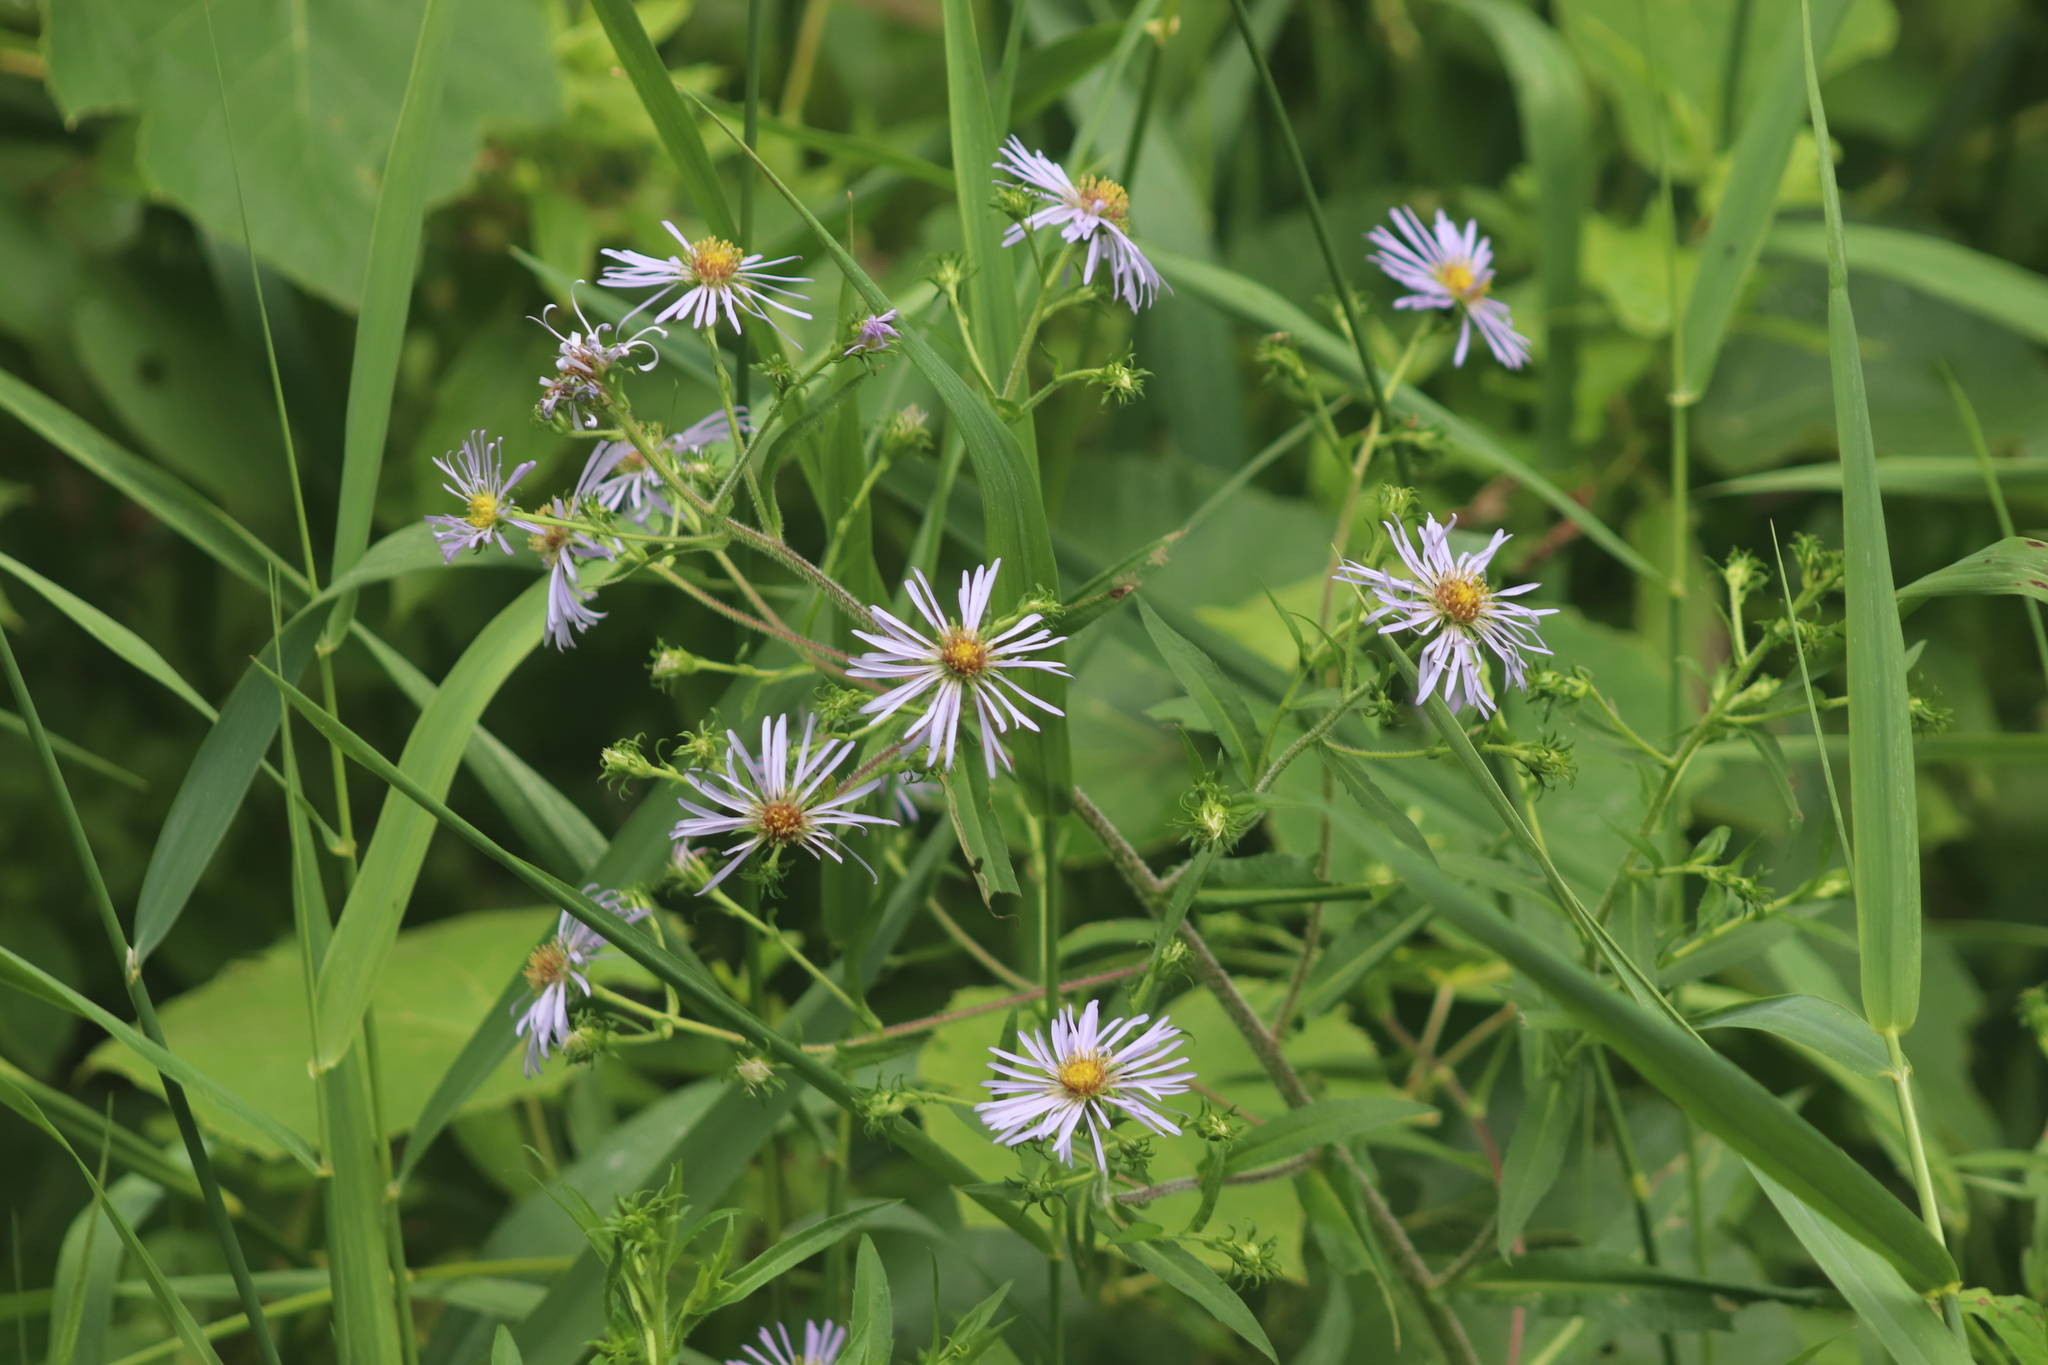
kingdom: Plantae
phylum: Tracheophyta
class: Magnoliopsida
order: Asterales
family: Asteraceae
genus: Symphyotrichum
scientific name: Symphyotrichum puniceum
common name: Bog aster
